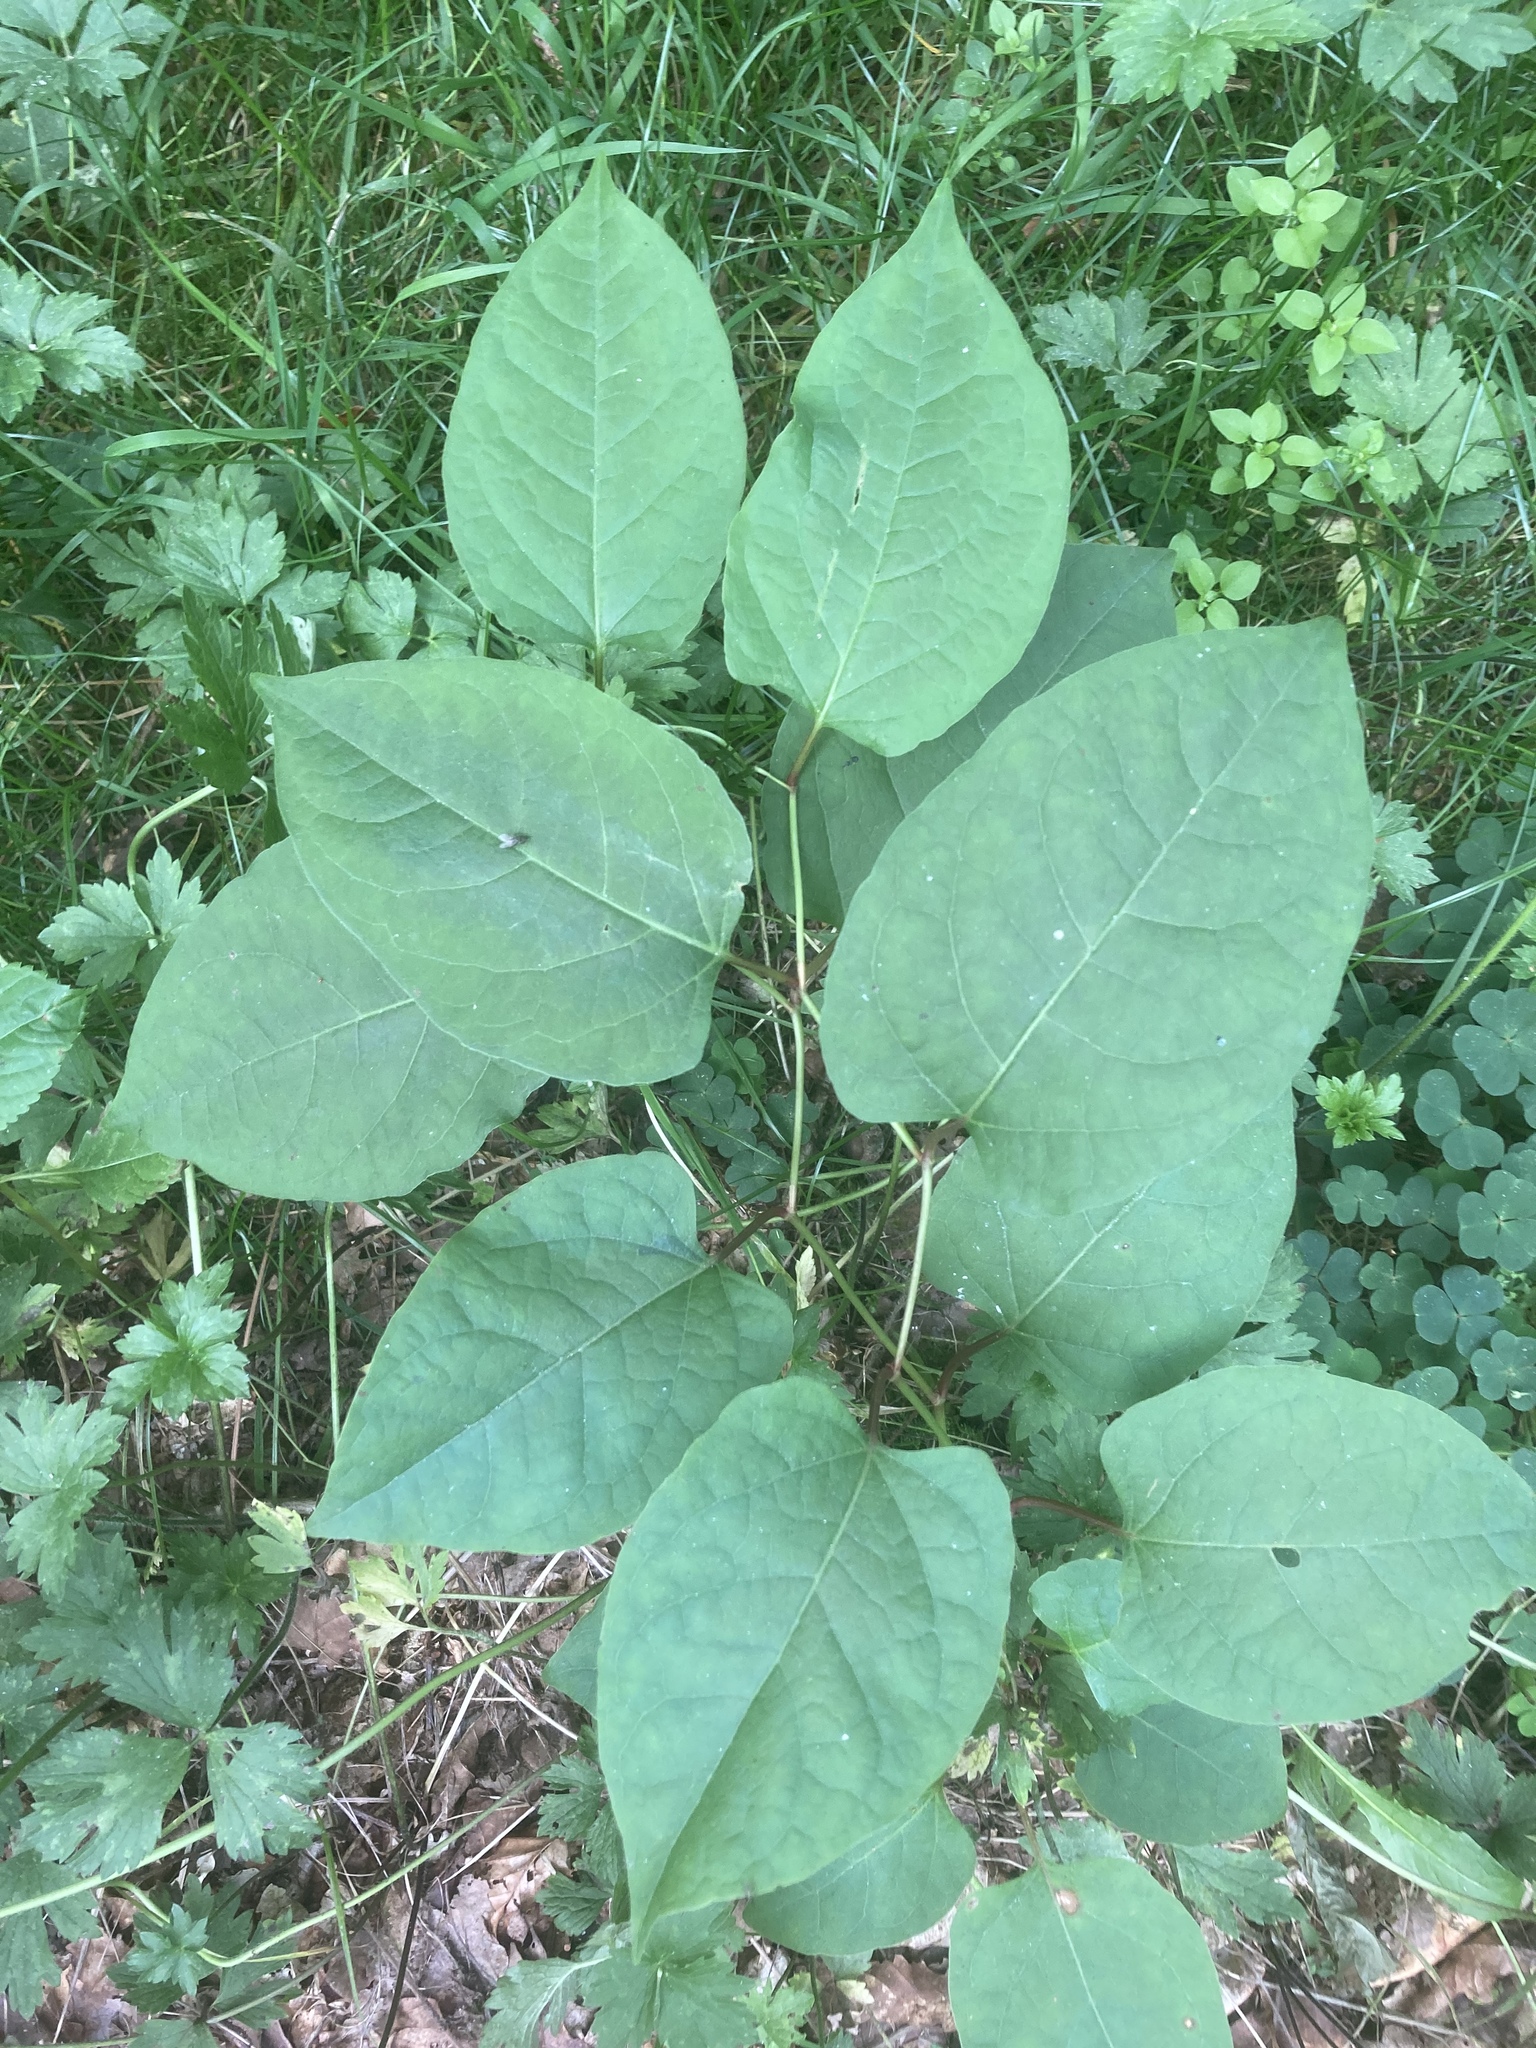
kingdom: Plantae
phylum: Tracheophyta
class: Magnoliopsida
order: Caryophyllales
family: Polygonaceae
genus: Reynoutria
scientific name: Reynoutria bohemica
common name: Bohemian knotweed
